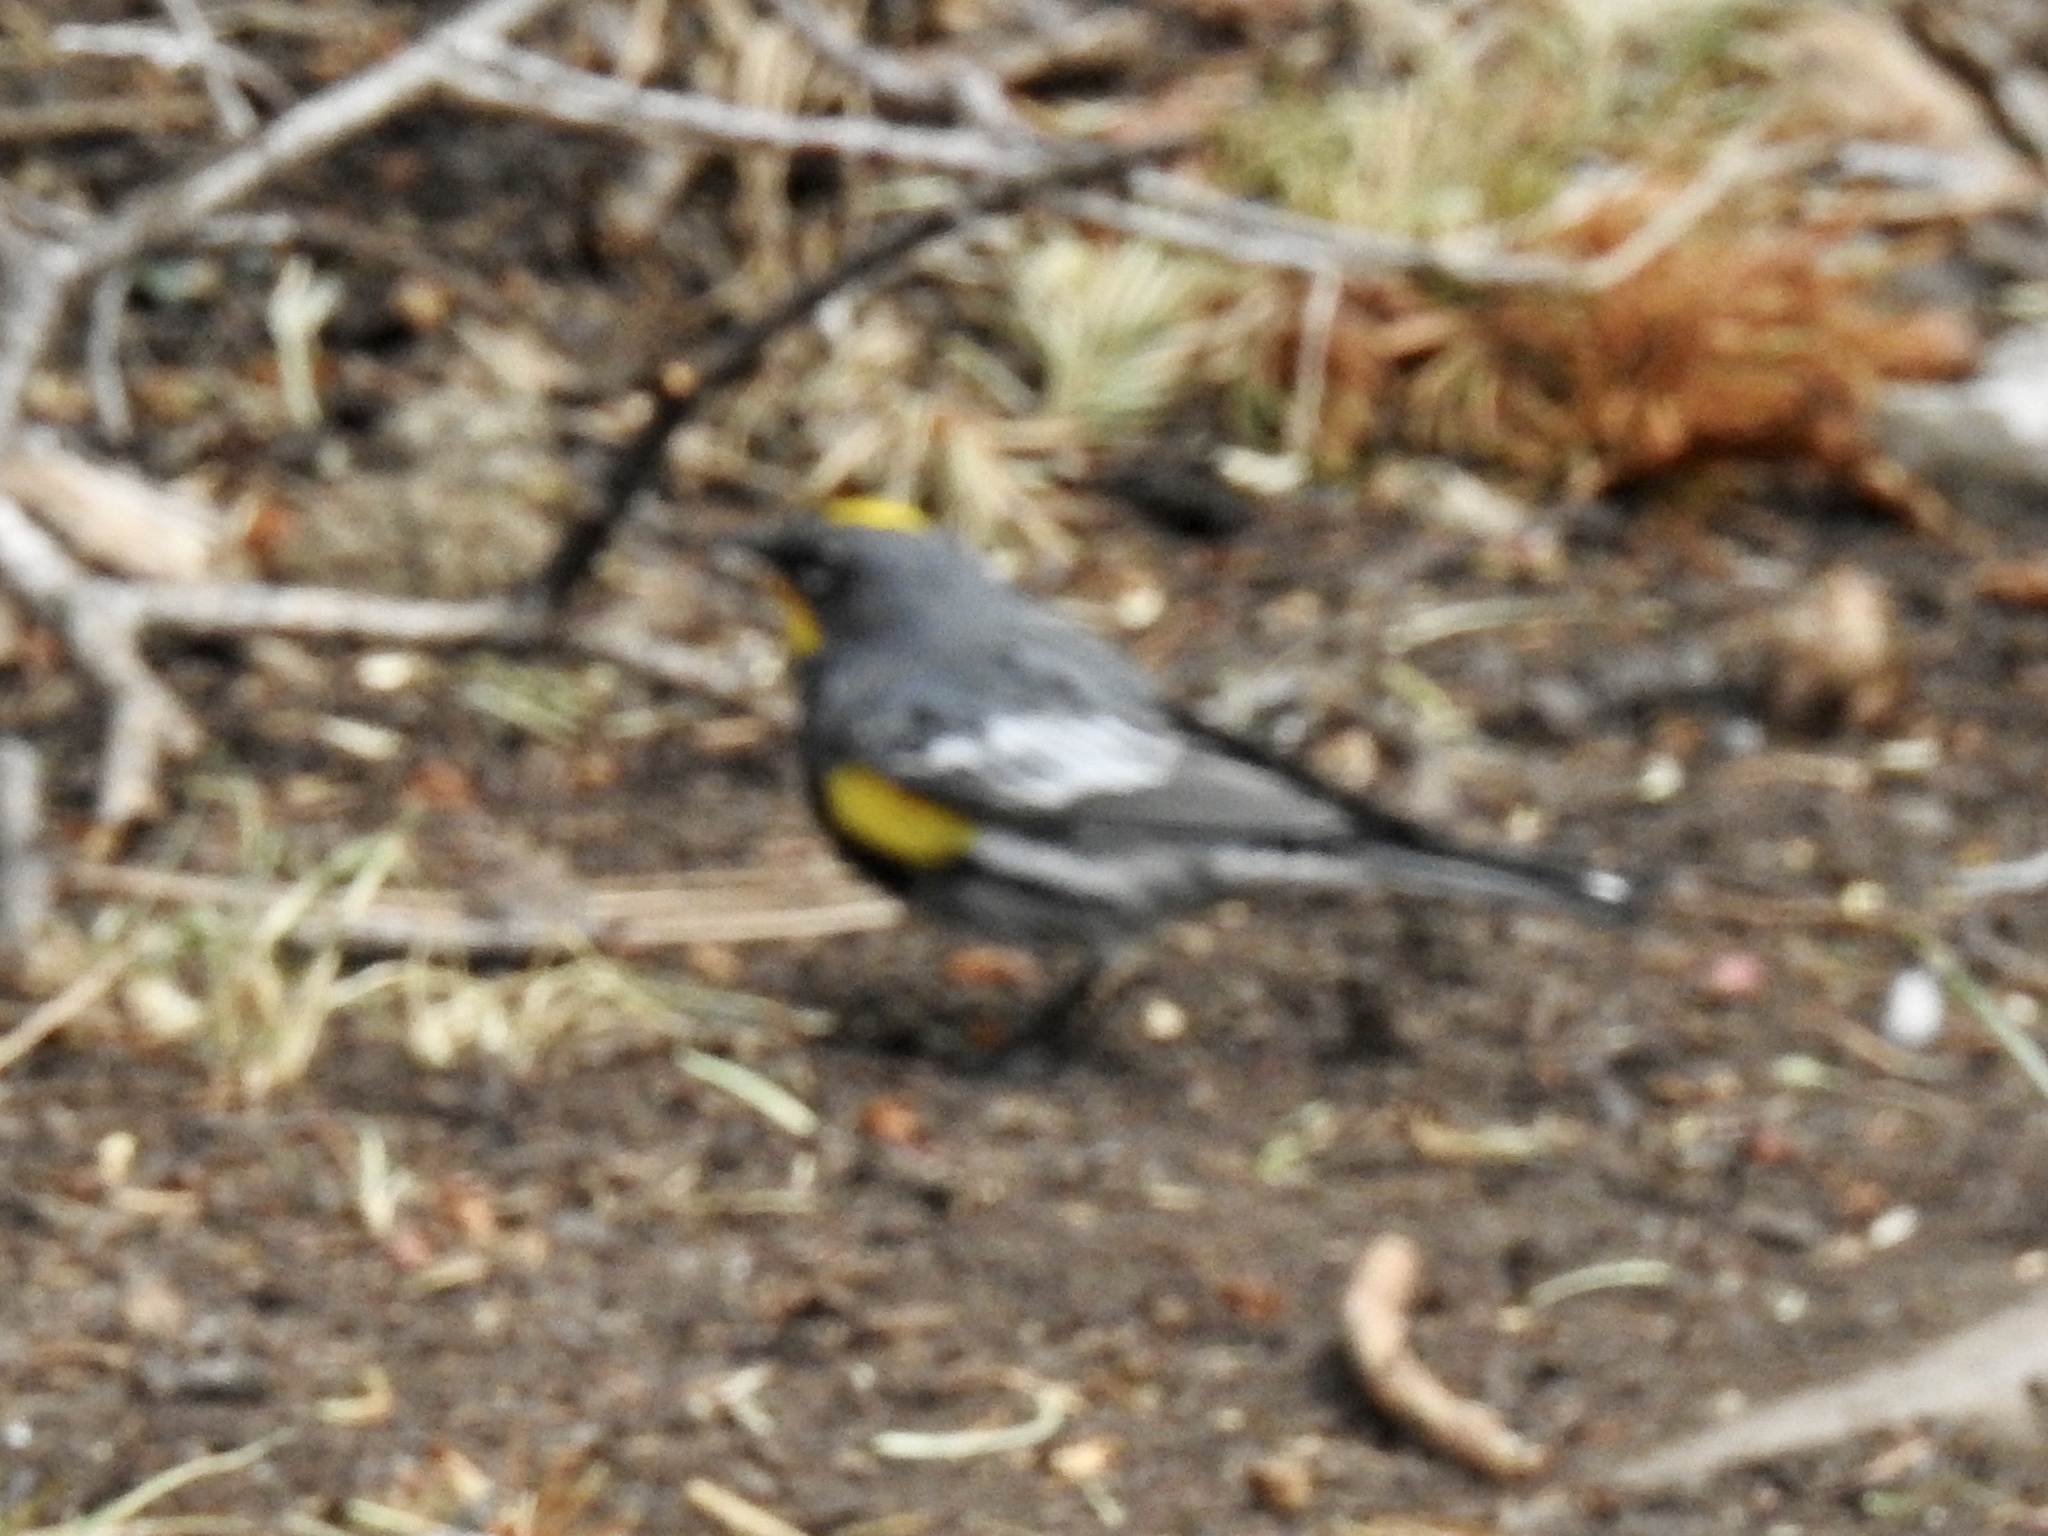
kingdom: Animalia
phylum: Chordata
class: Aves
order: Passeriformes
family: Parulidae
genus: Setophaga
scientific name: Setophaga coronata
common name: Myrtle warbler
